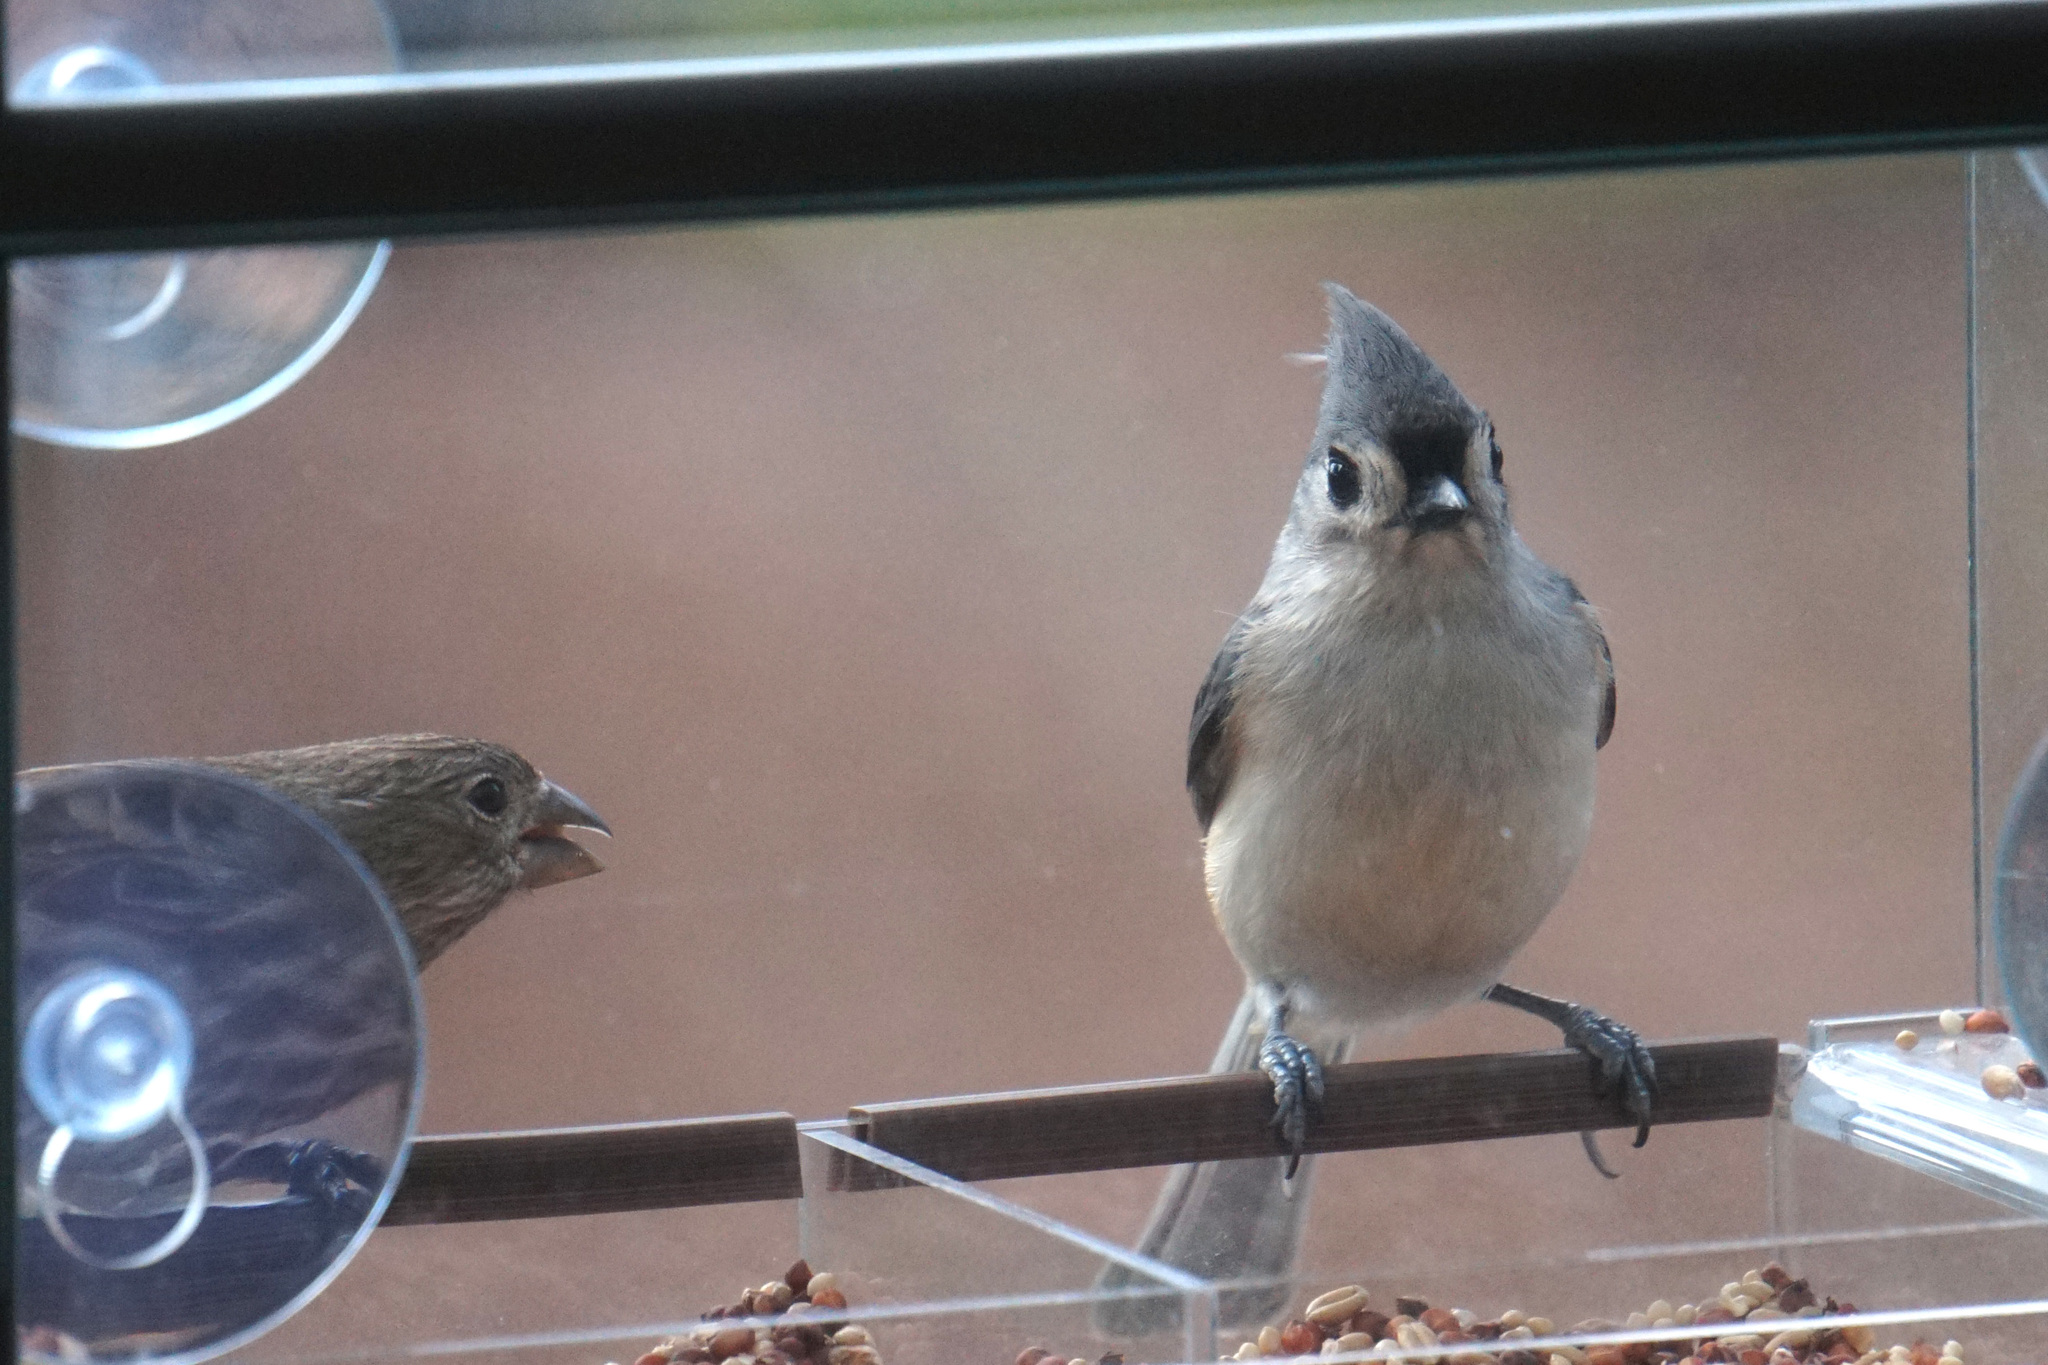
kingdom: Animalia
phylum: Chordata
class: Aves
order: Passeriformes
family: Paridae
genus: Baeolophus
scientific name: Baeolophus bicolor
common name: Tufted titmouse
